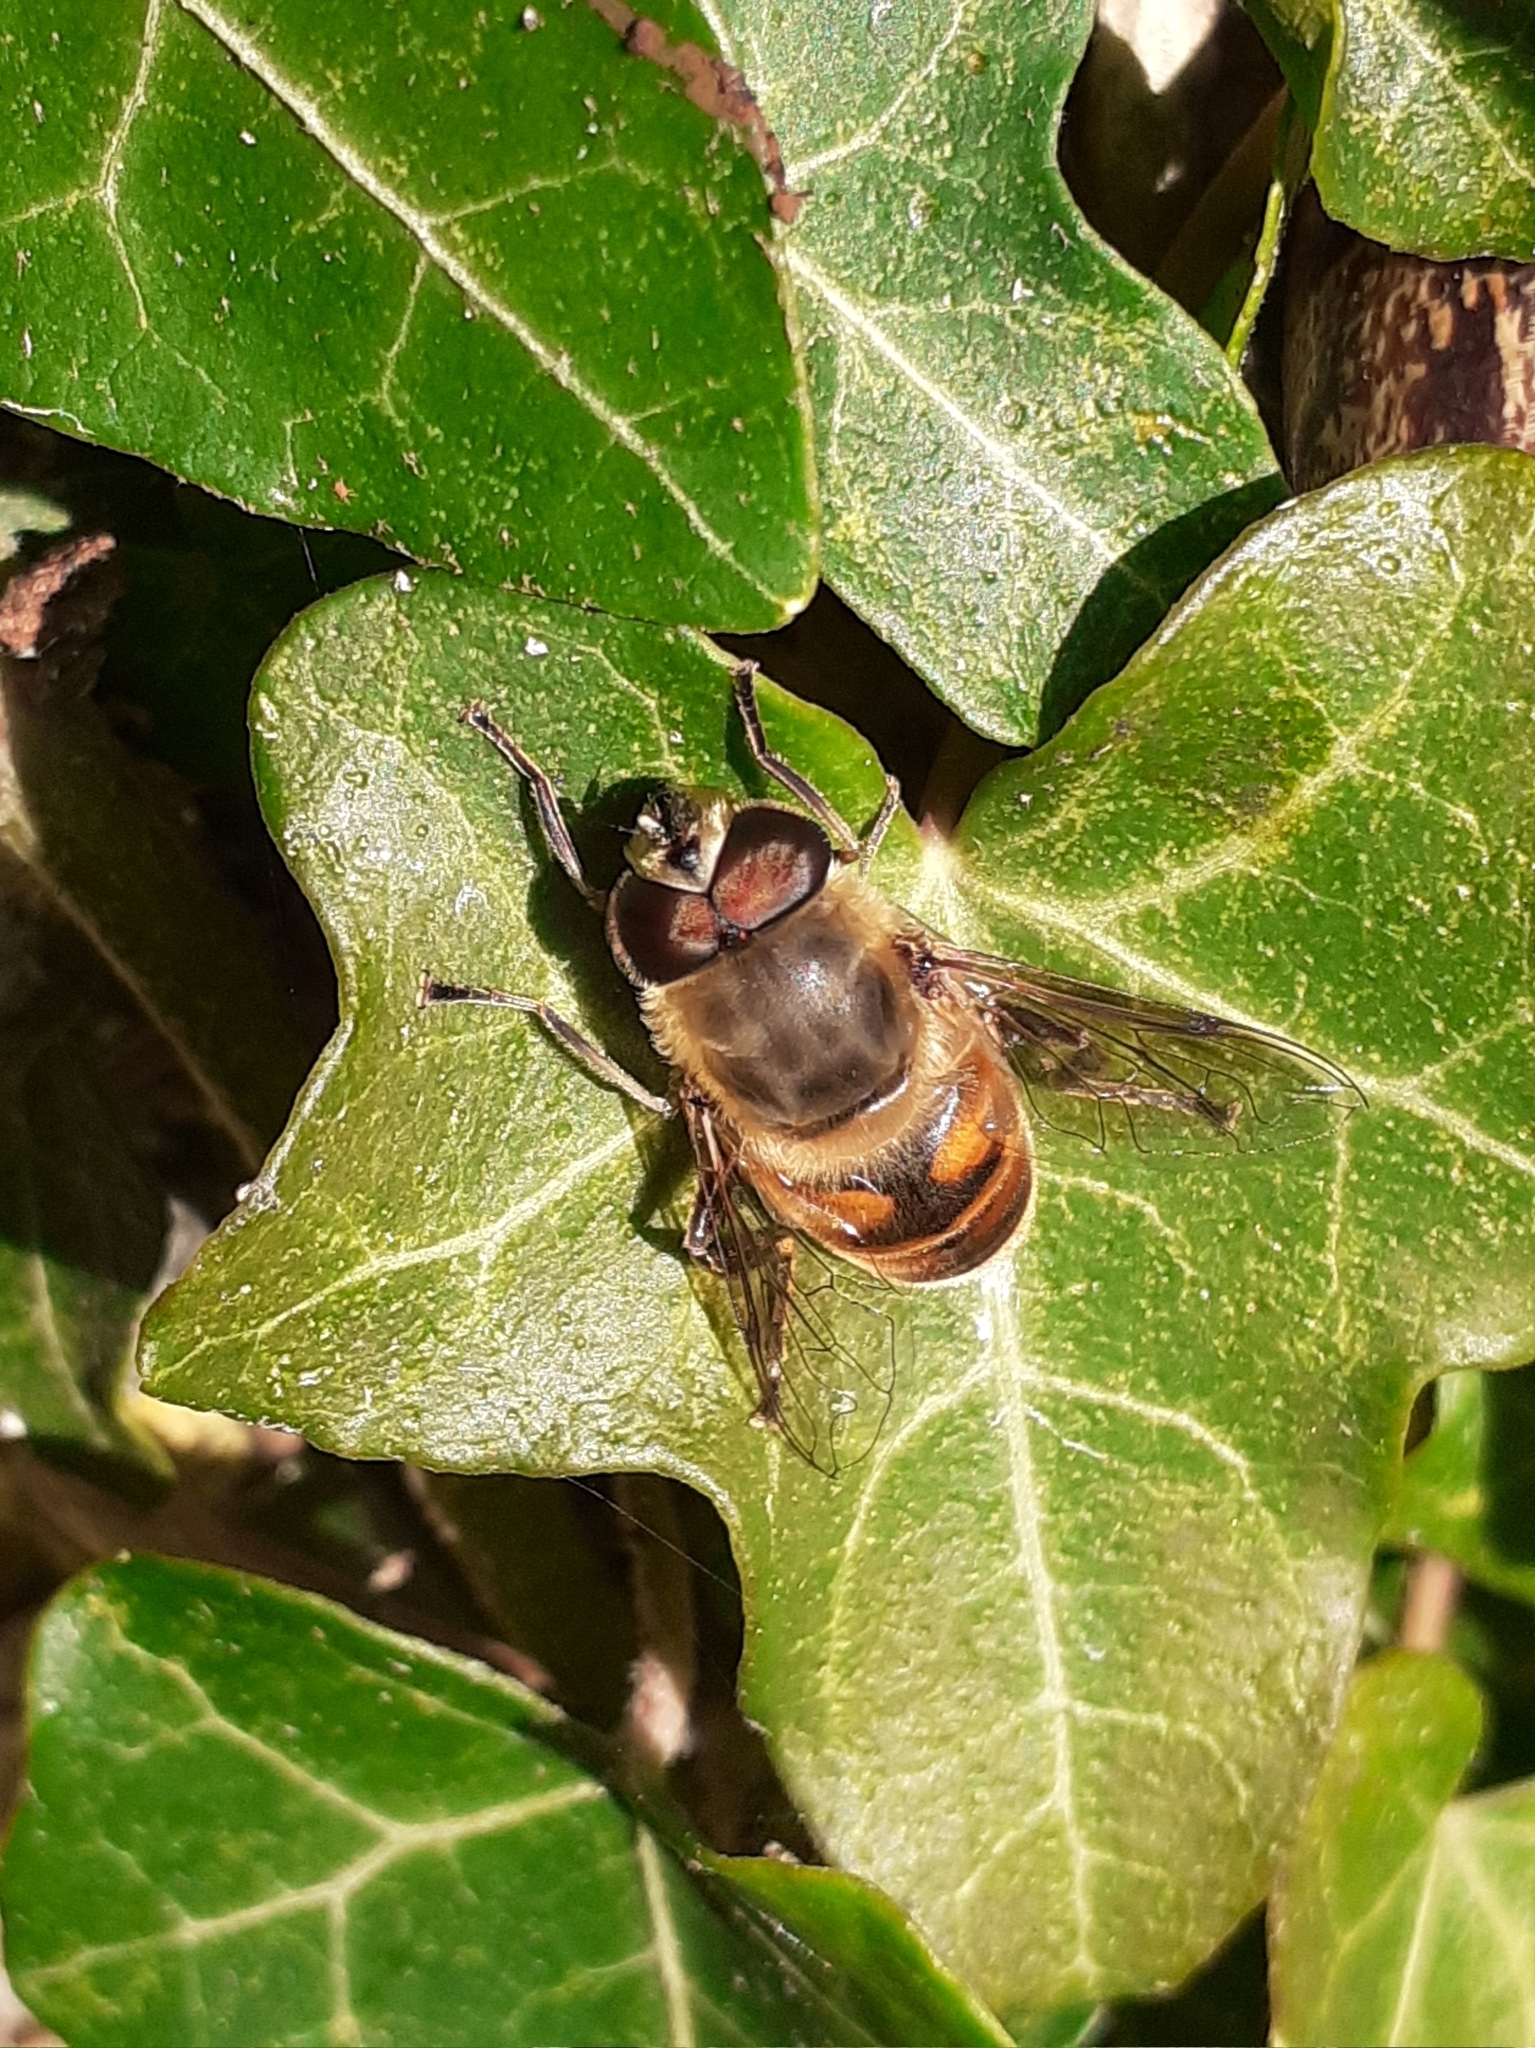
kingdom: Animalia
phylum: Arthropoda
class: Insecta
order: Diptera
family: Syrphidae
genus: Eristalis
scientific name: Eristalis tenax
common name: Drone fly
